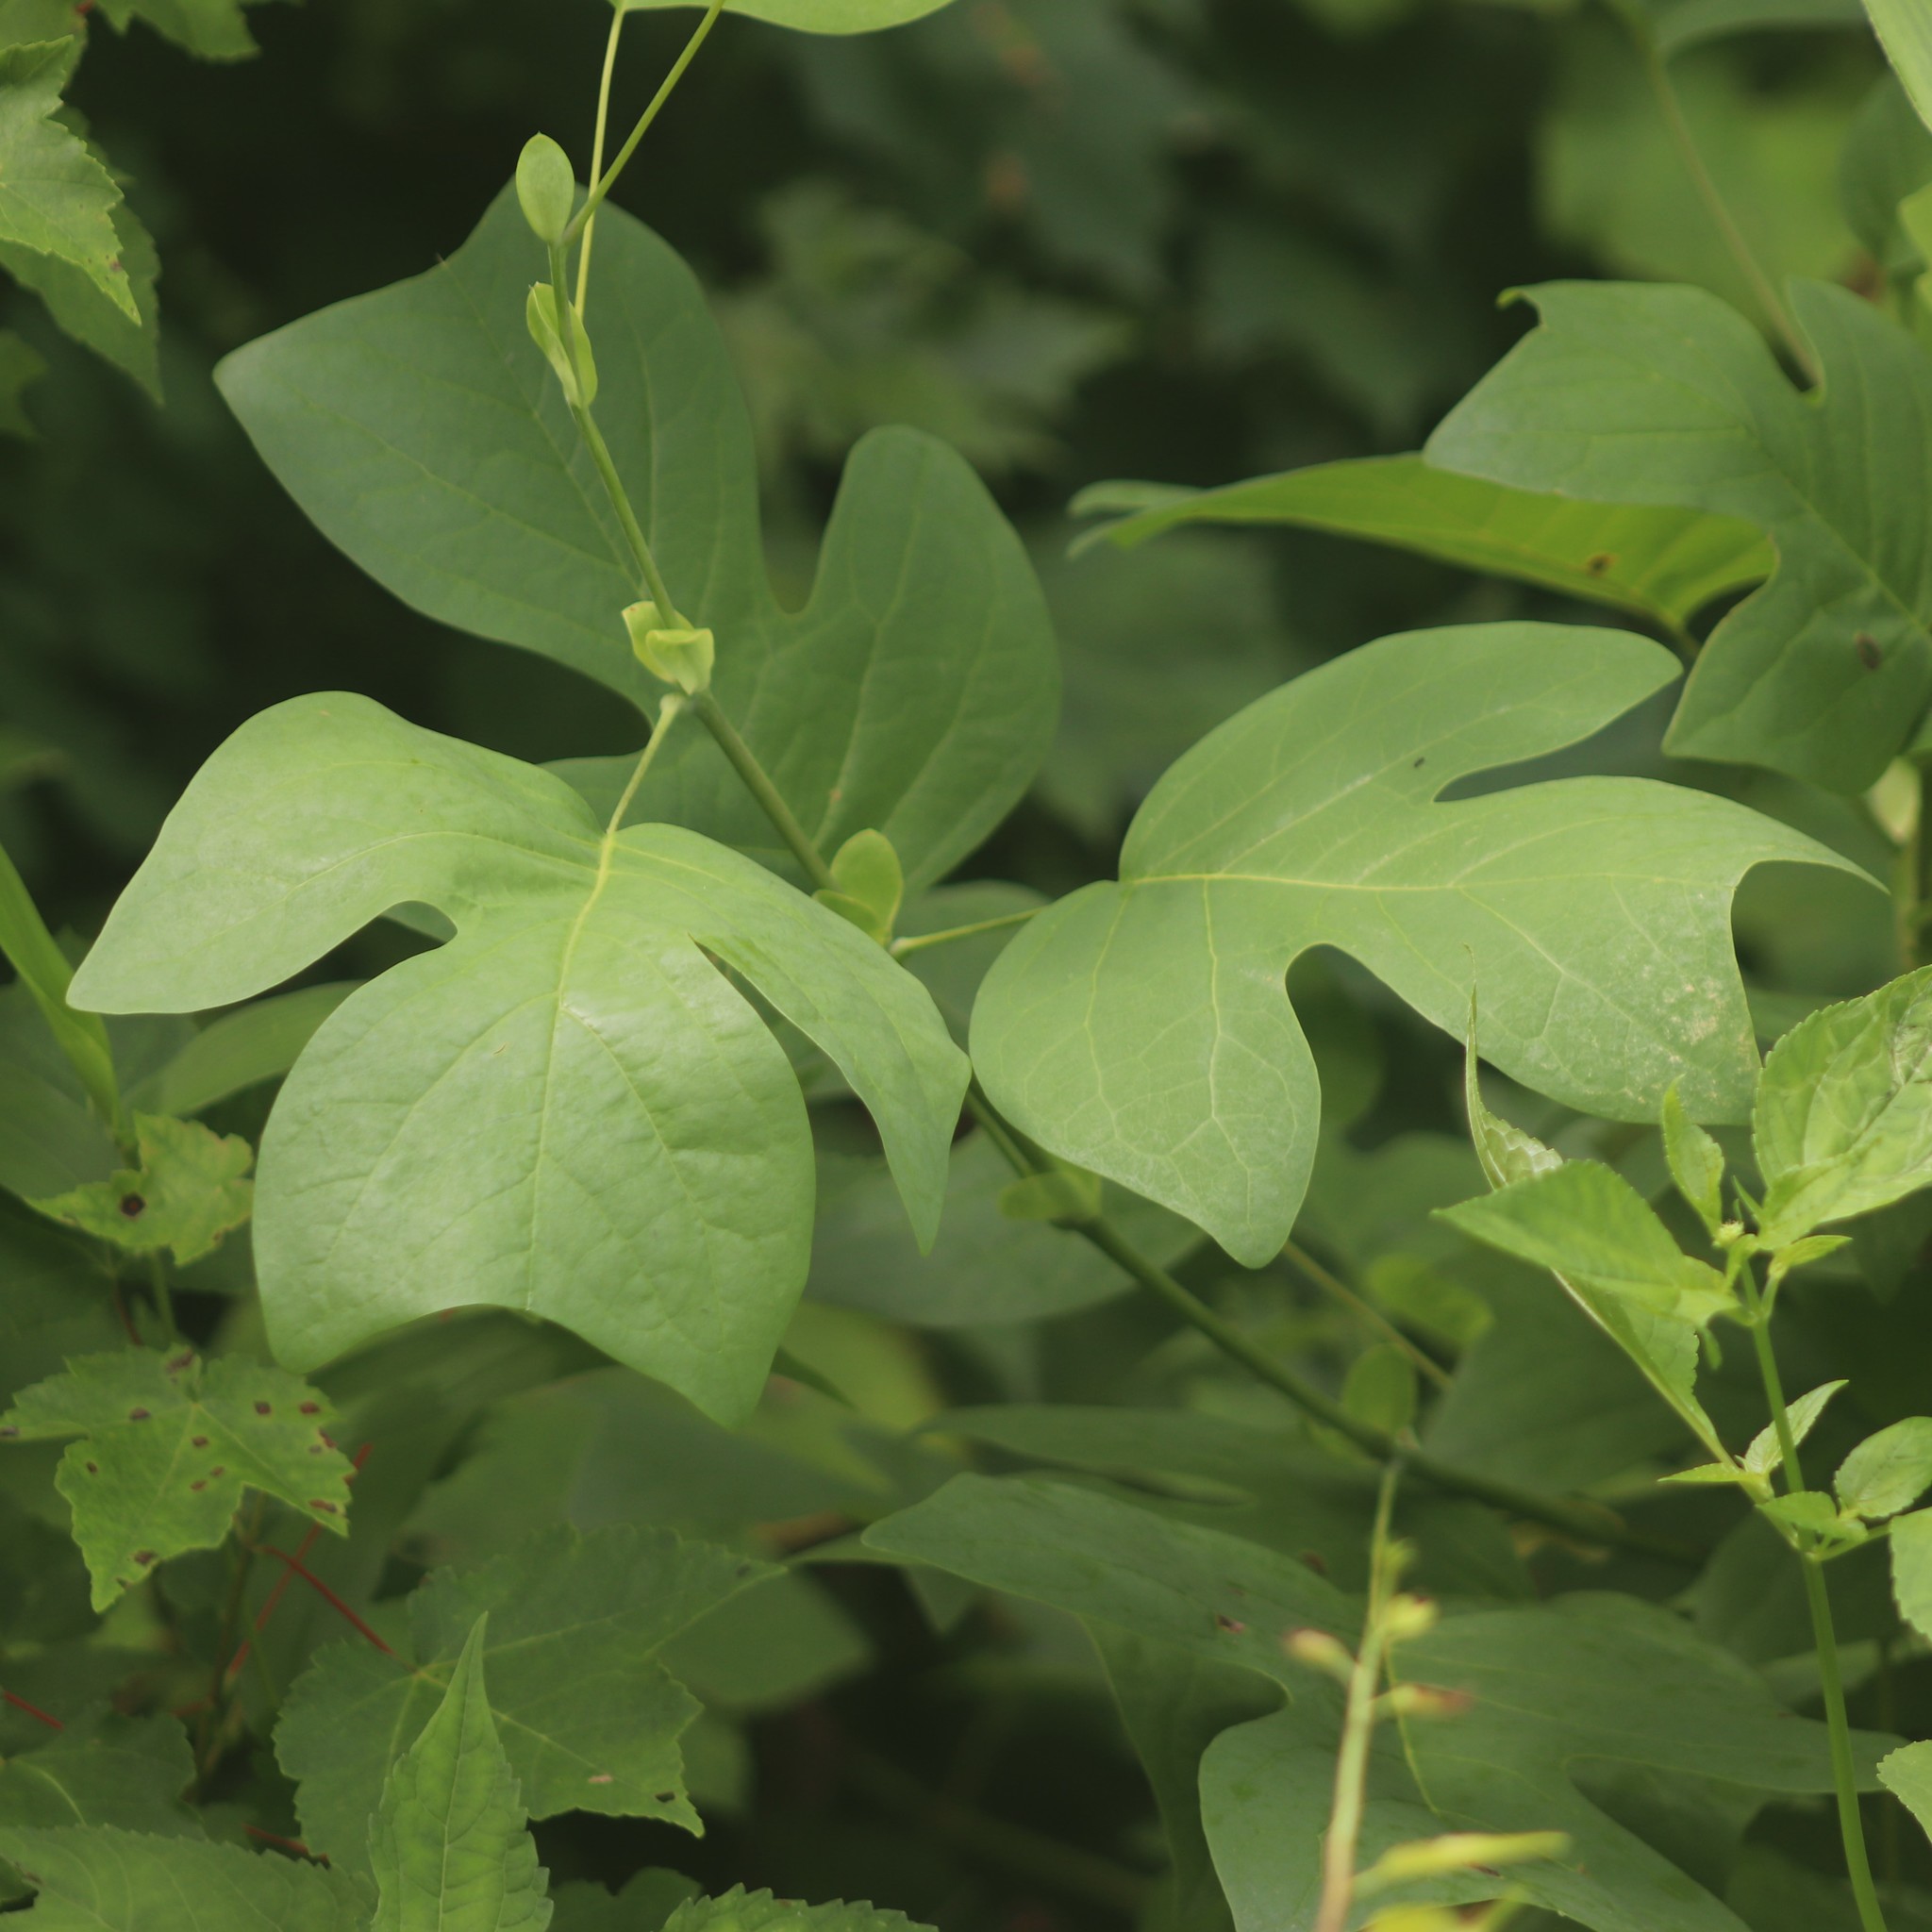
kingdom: Plantae
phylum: Tracheophyta
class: Magnoliopsida
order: Magnoliales
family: Magnoliaceae
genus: Liriodendron
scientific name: Liriodendron tulipifera
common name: Tulip tree
